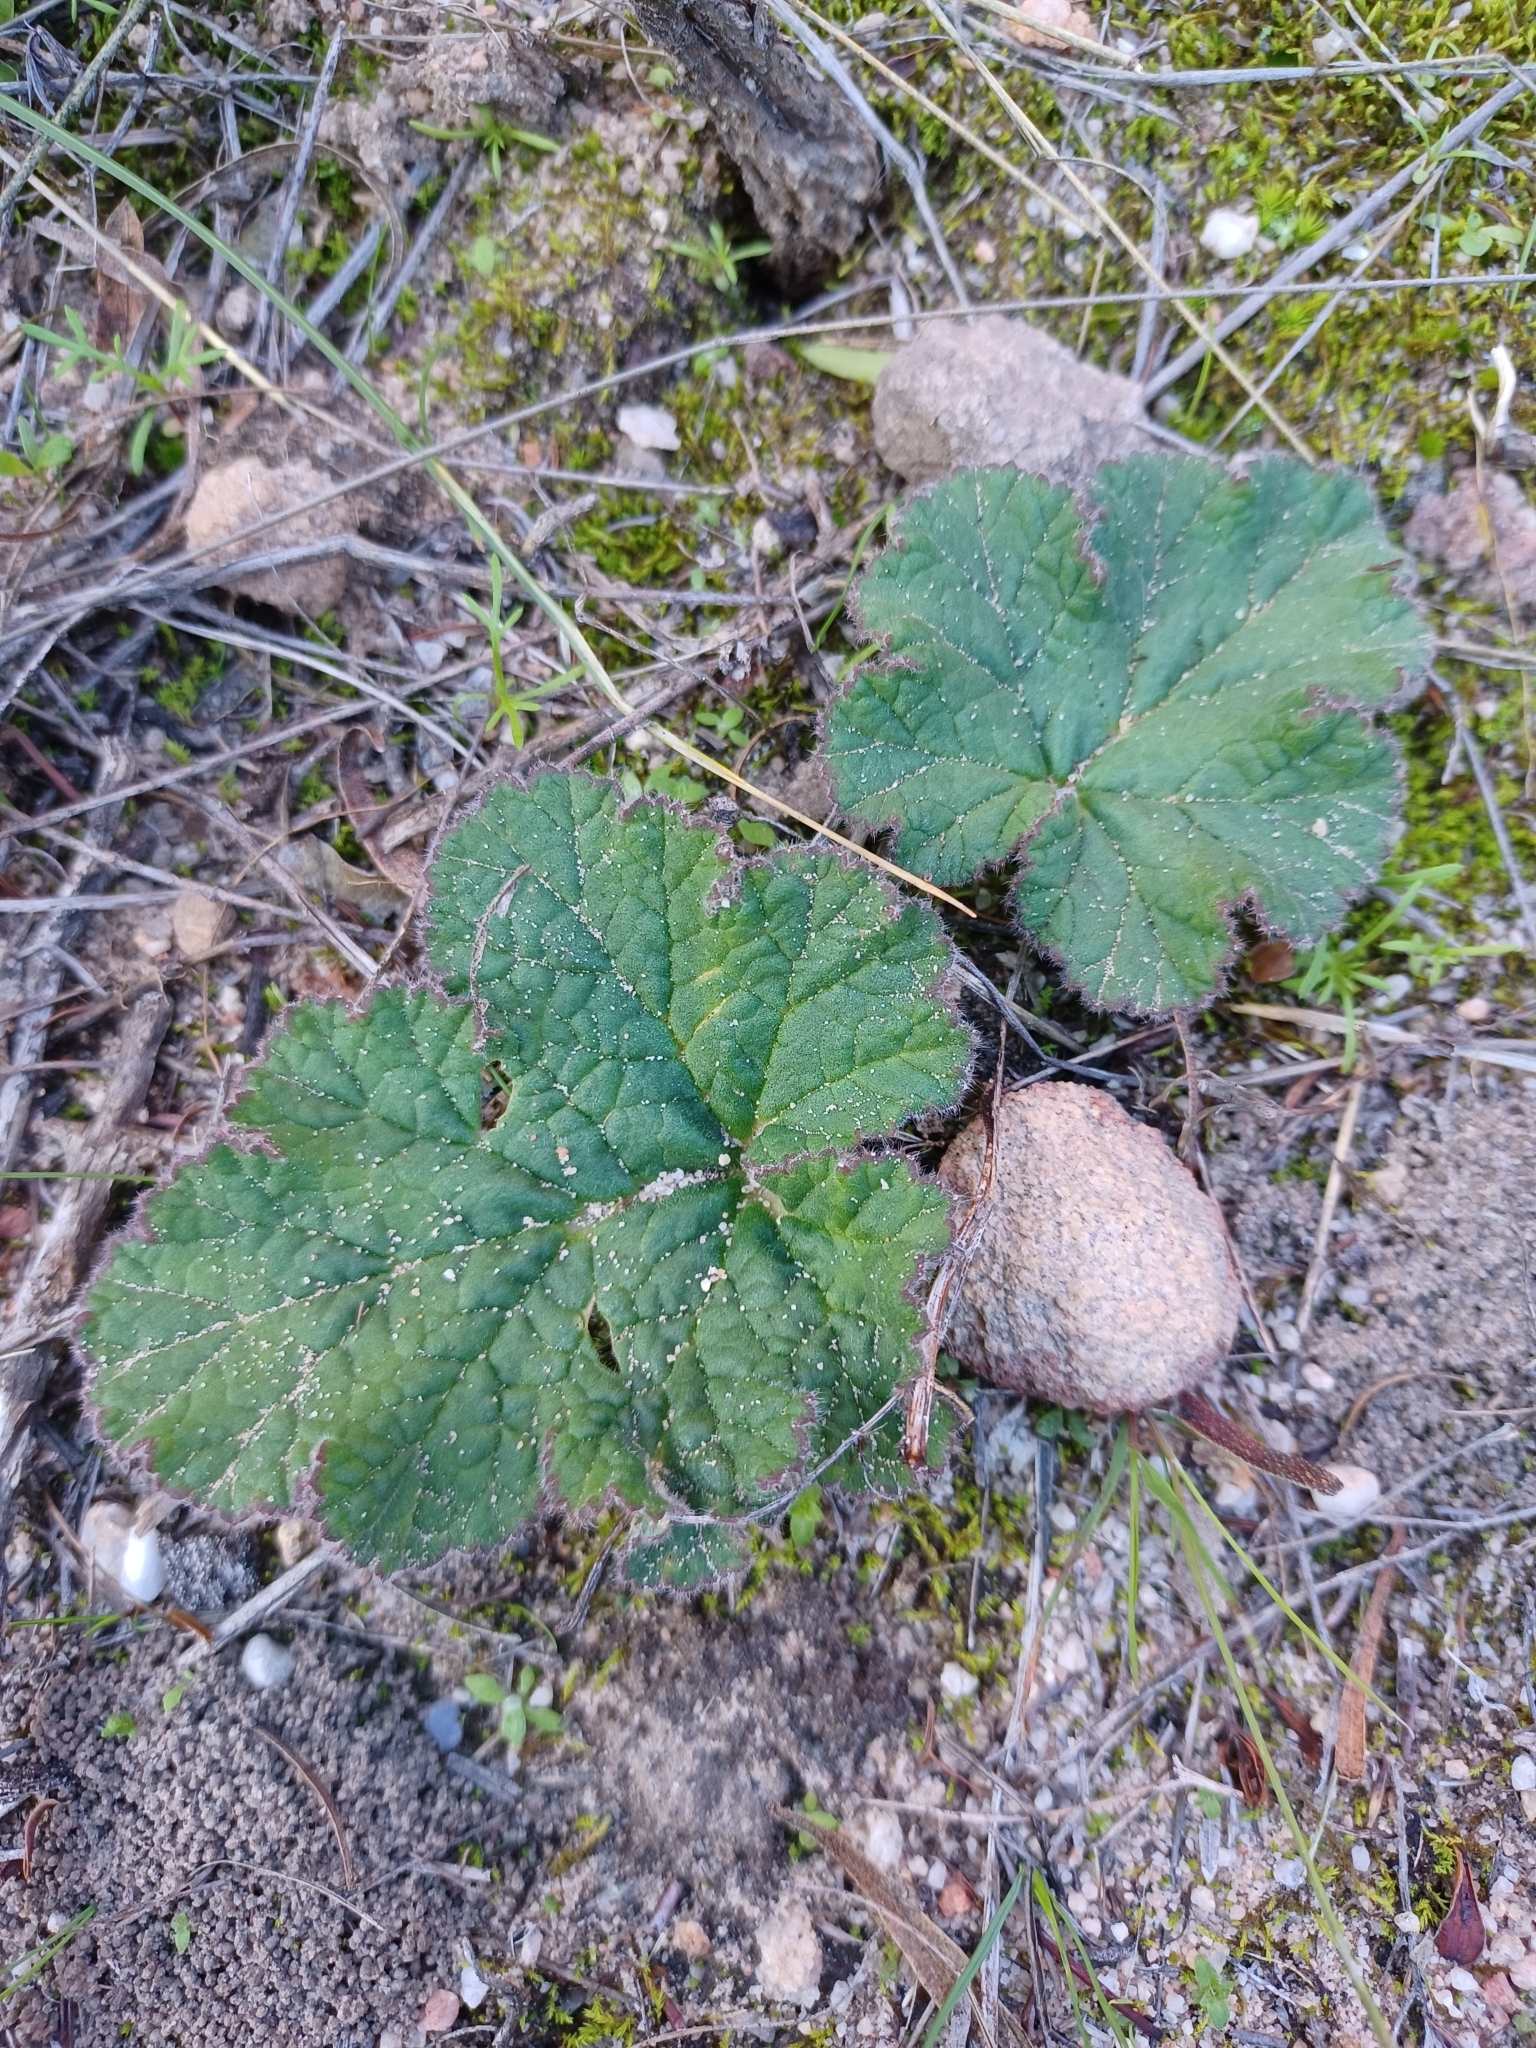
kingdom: Plantae
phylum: Tracheophyta
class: Magnoliopsida
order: Geraniales
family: Geraniaceae
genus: Pelargonium
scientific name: Pelargonium lobatum
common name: Vine-leaf pelargonium
